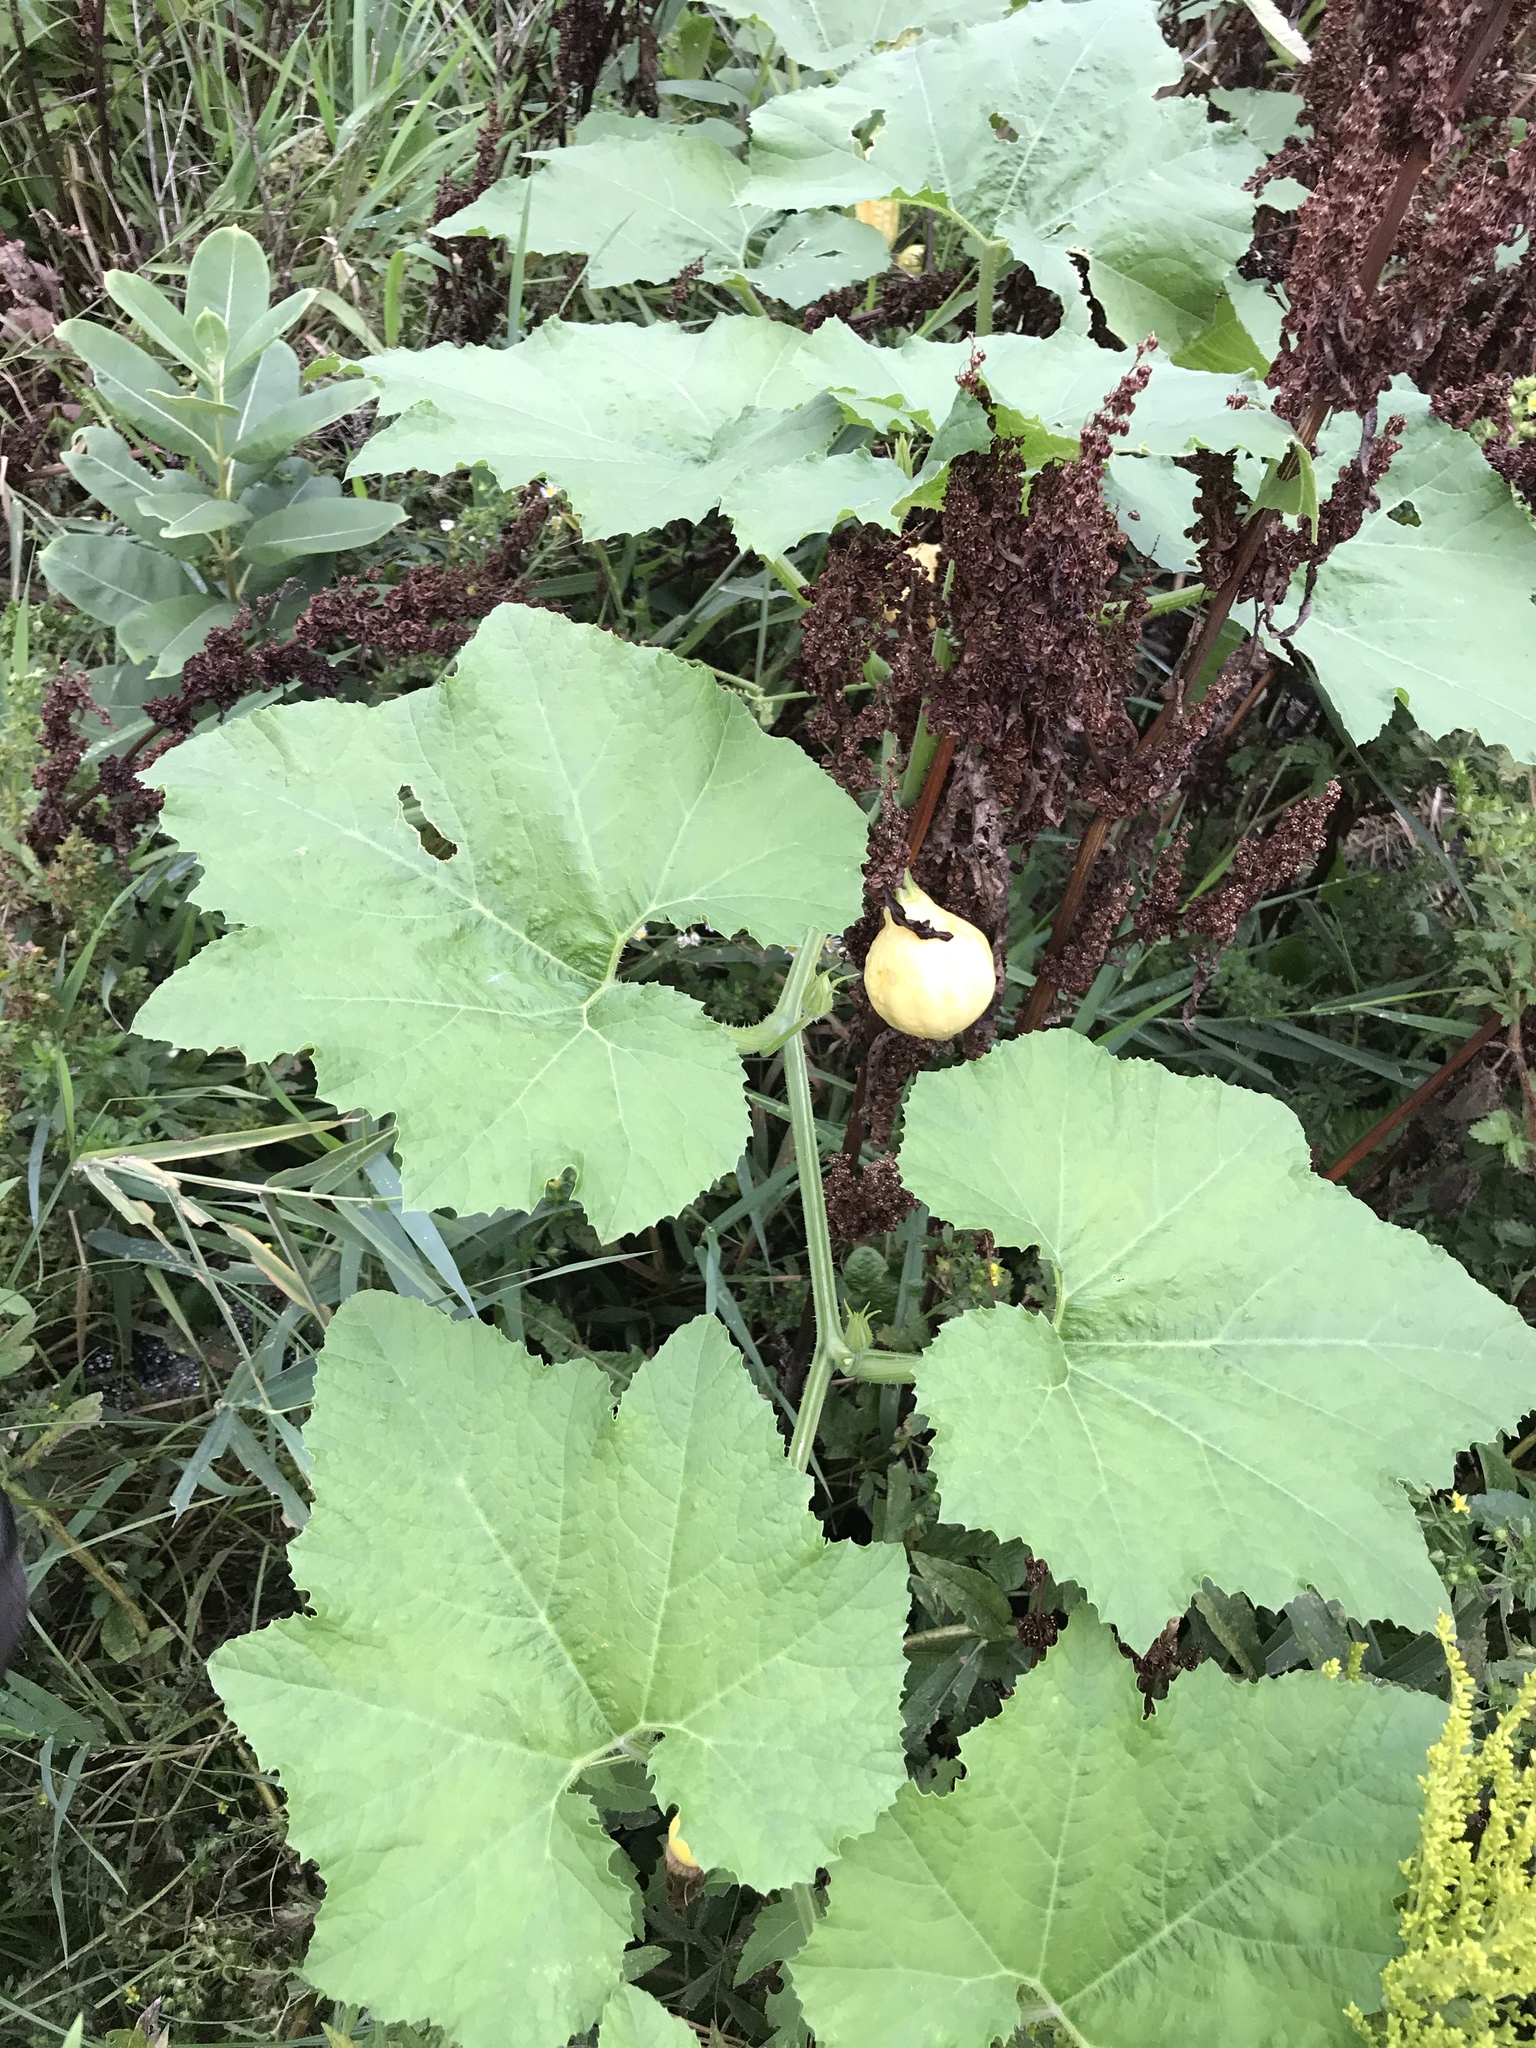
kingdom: Plantae
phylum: Tracheophyta
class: Magnoliopsida
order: Cucurbitales
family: Cucurbitaceae
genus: Cucurbita
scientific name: Cucurbita pepo
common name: Marrow
